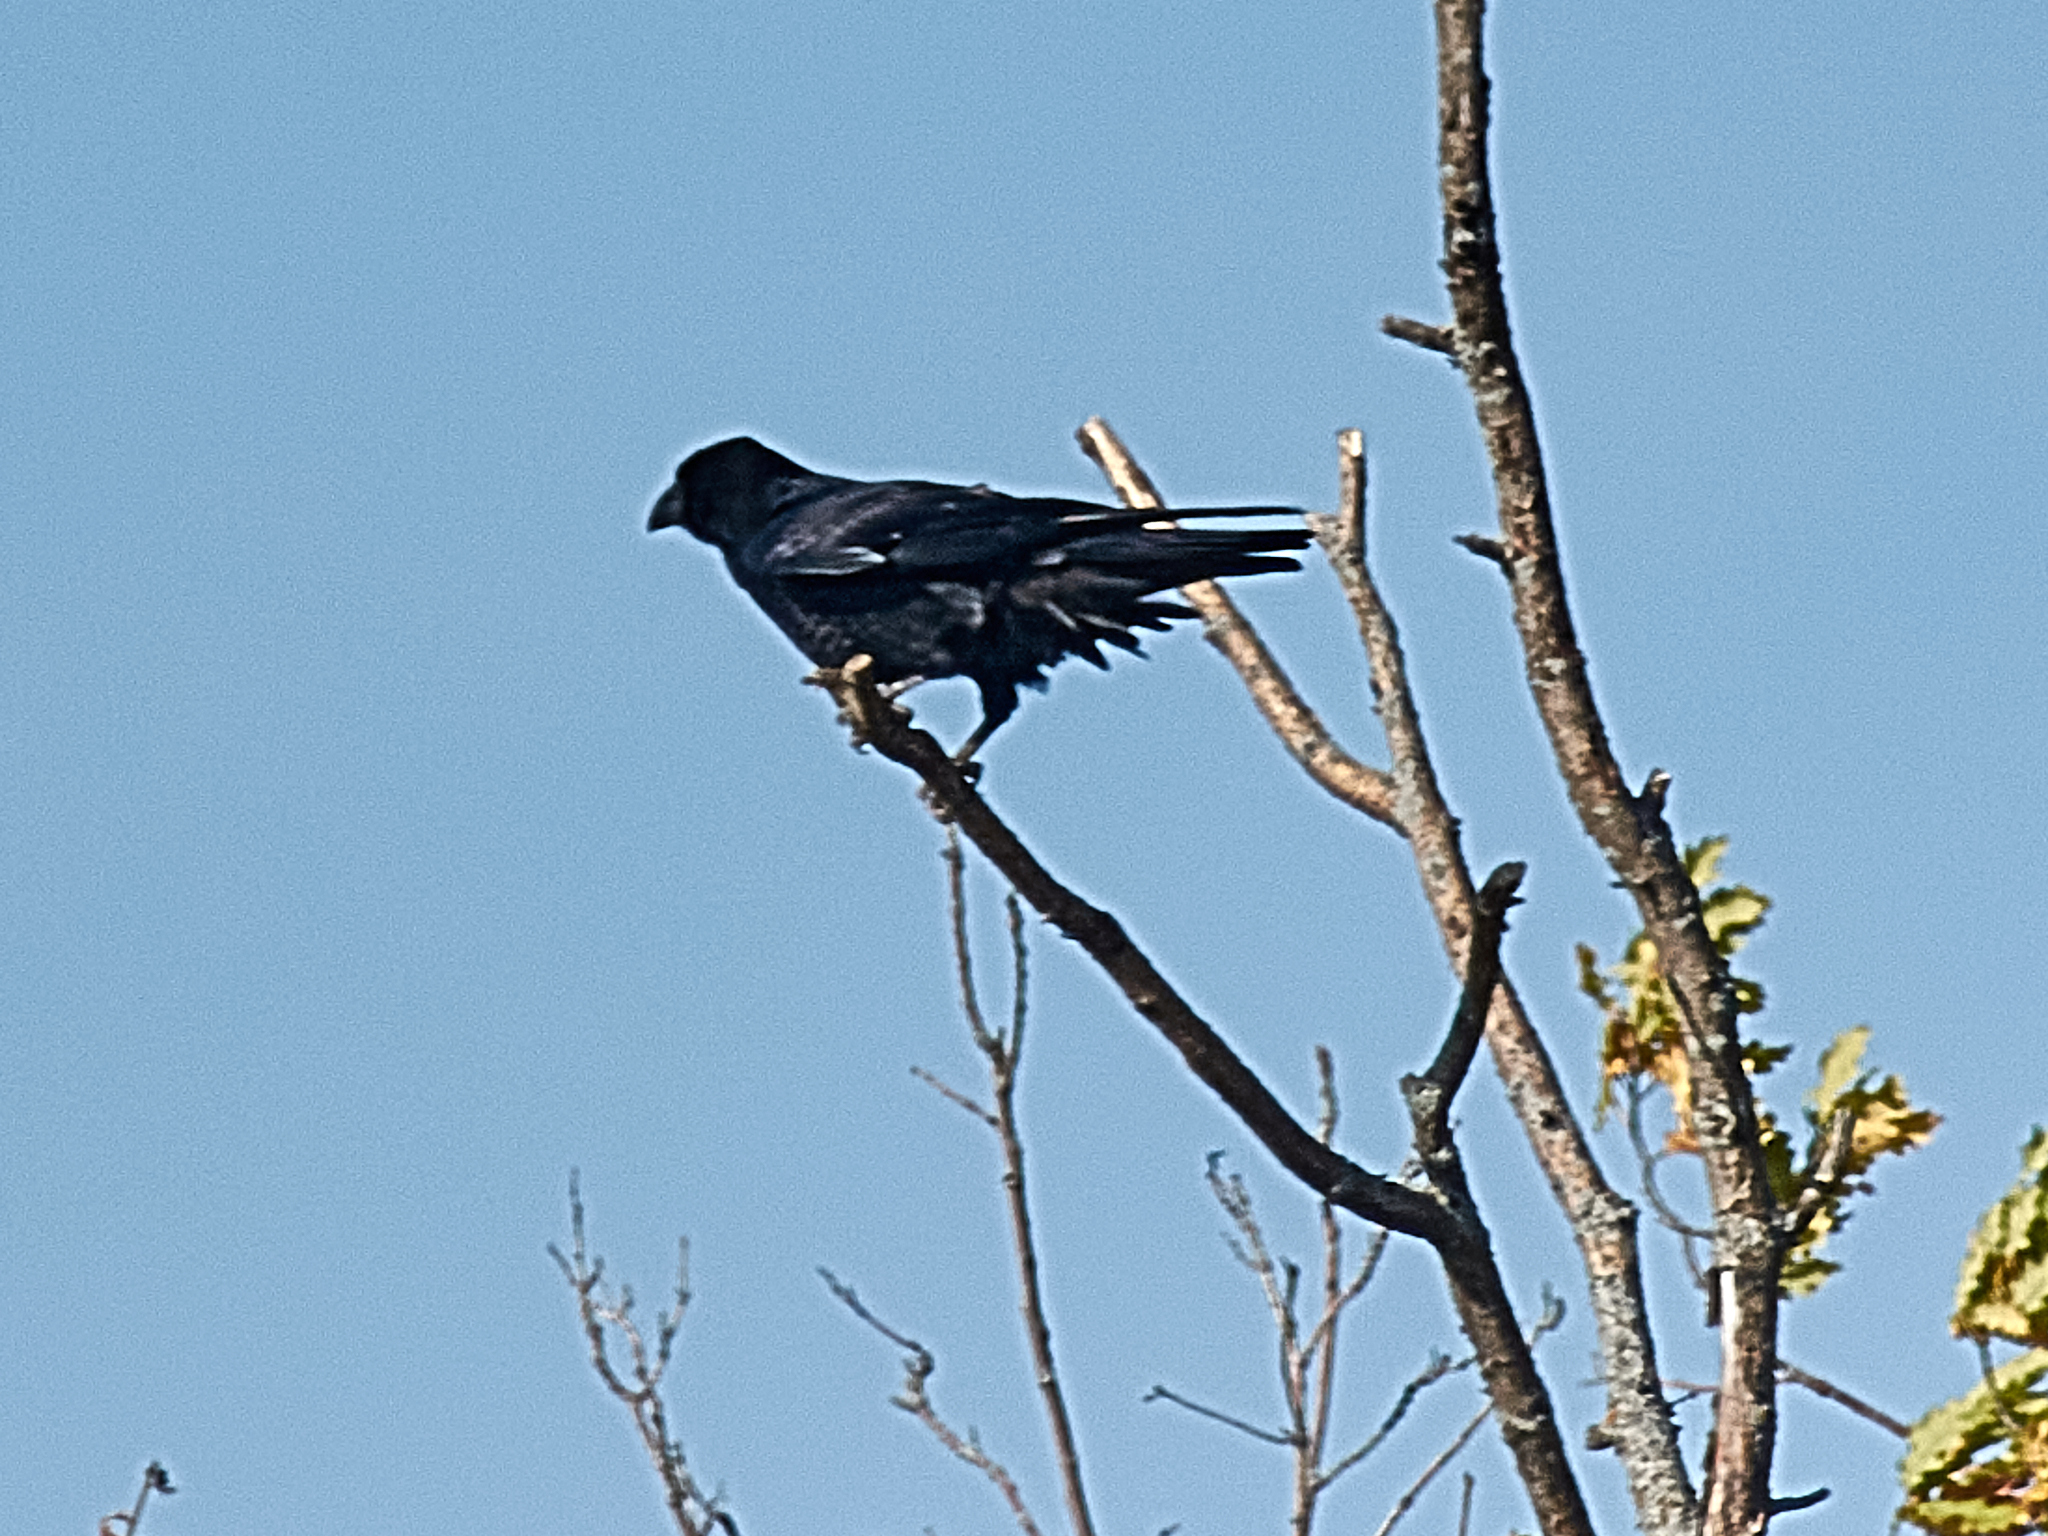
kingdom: Animalia
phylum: Chordata
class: Aves
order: Passeriformes
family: Corvidae
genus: Corvus
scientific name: Corvus corax
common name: Common raven
